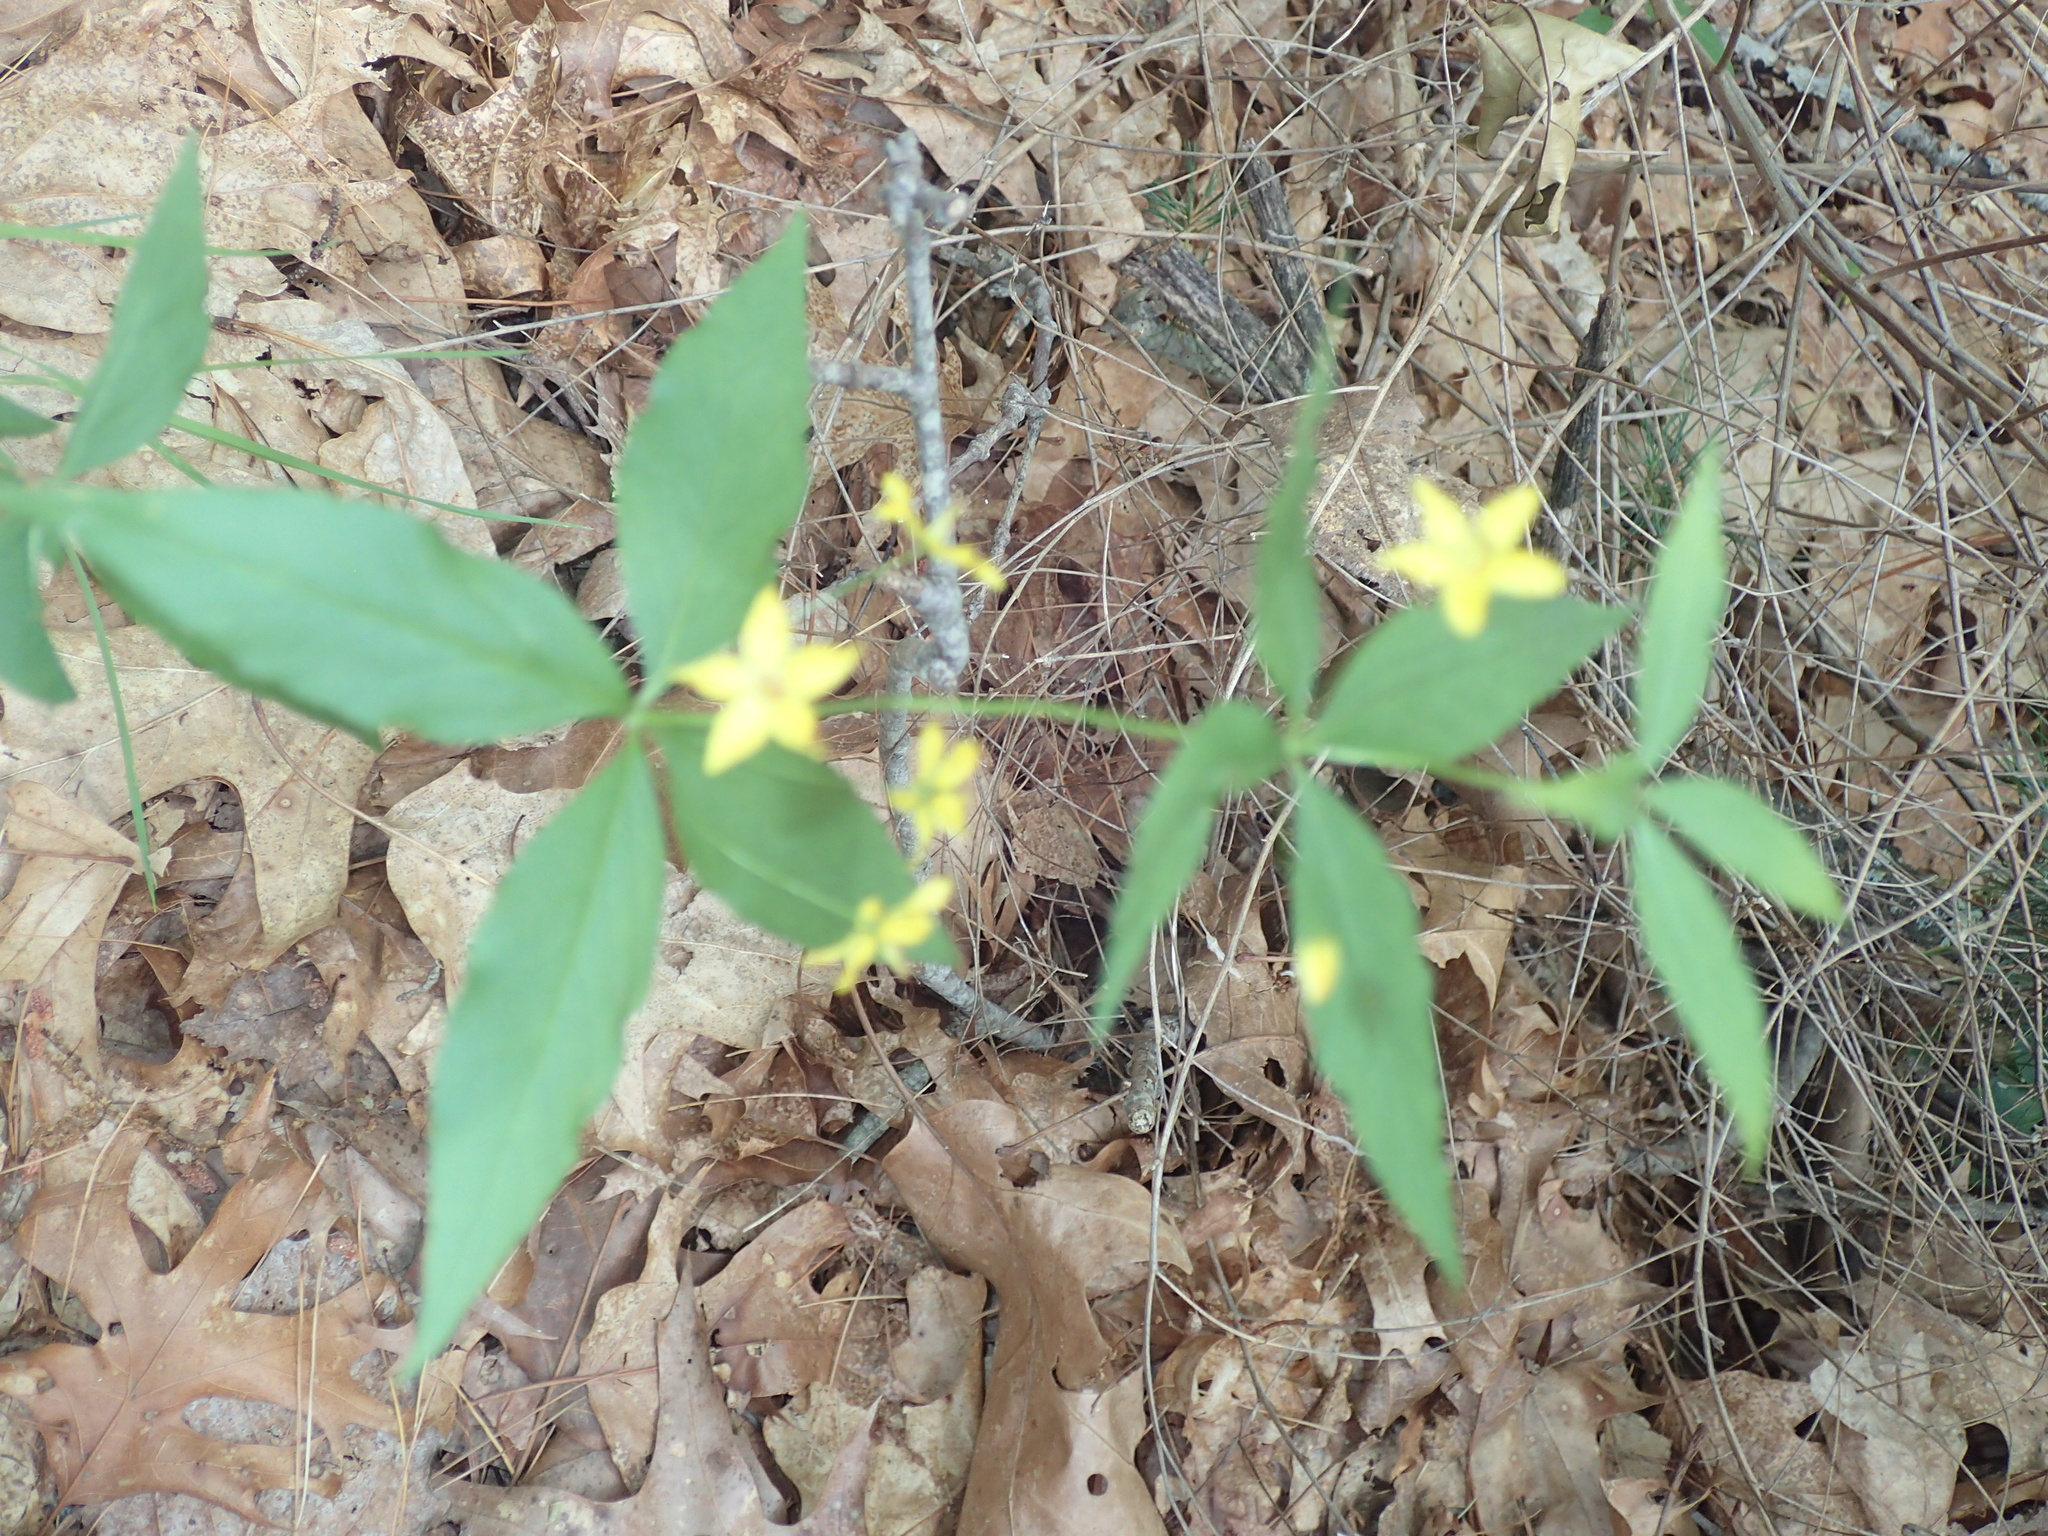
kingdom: Plantae
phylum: Tracheophyta
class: Magnoliopsida
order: Ericales
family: Primulaceae
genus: Lysimachia
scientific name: Lysimachia quadrifolia
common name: Whorled loosestrife
